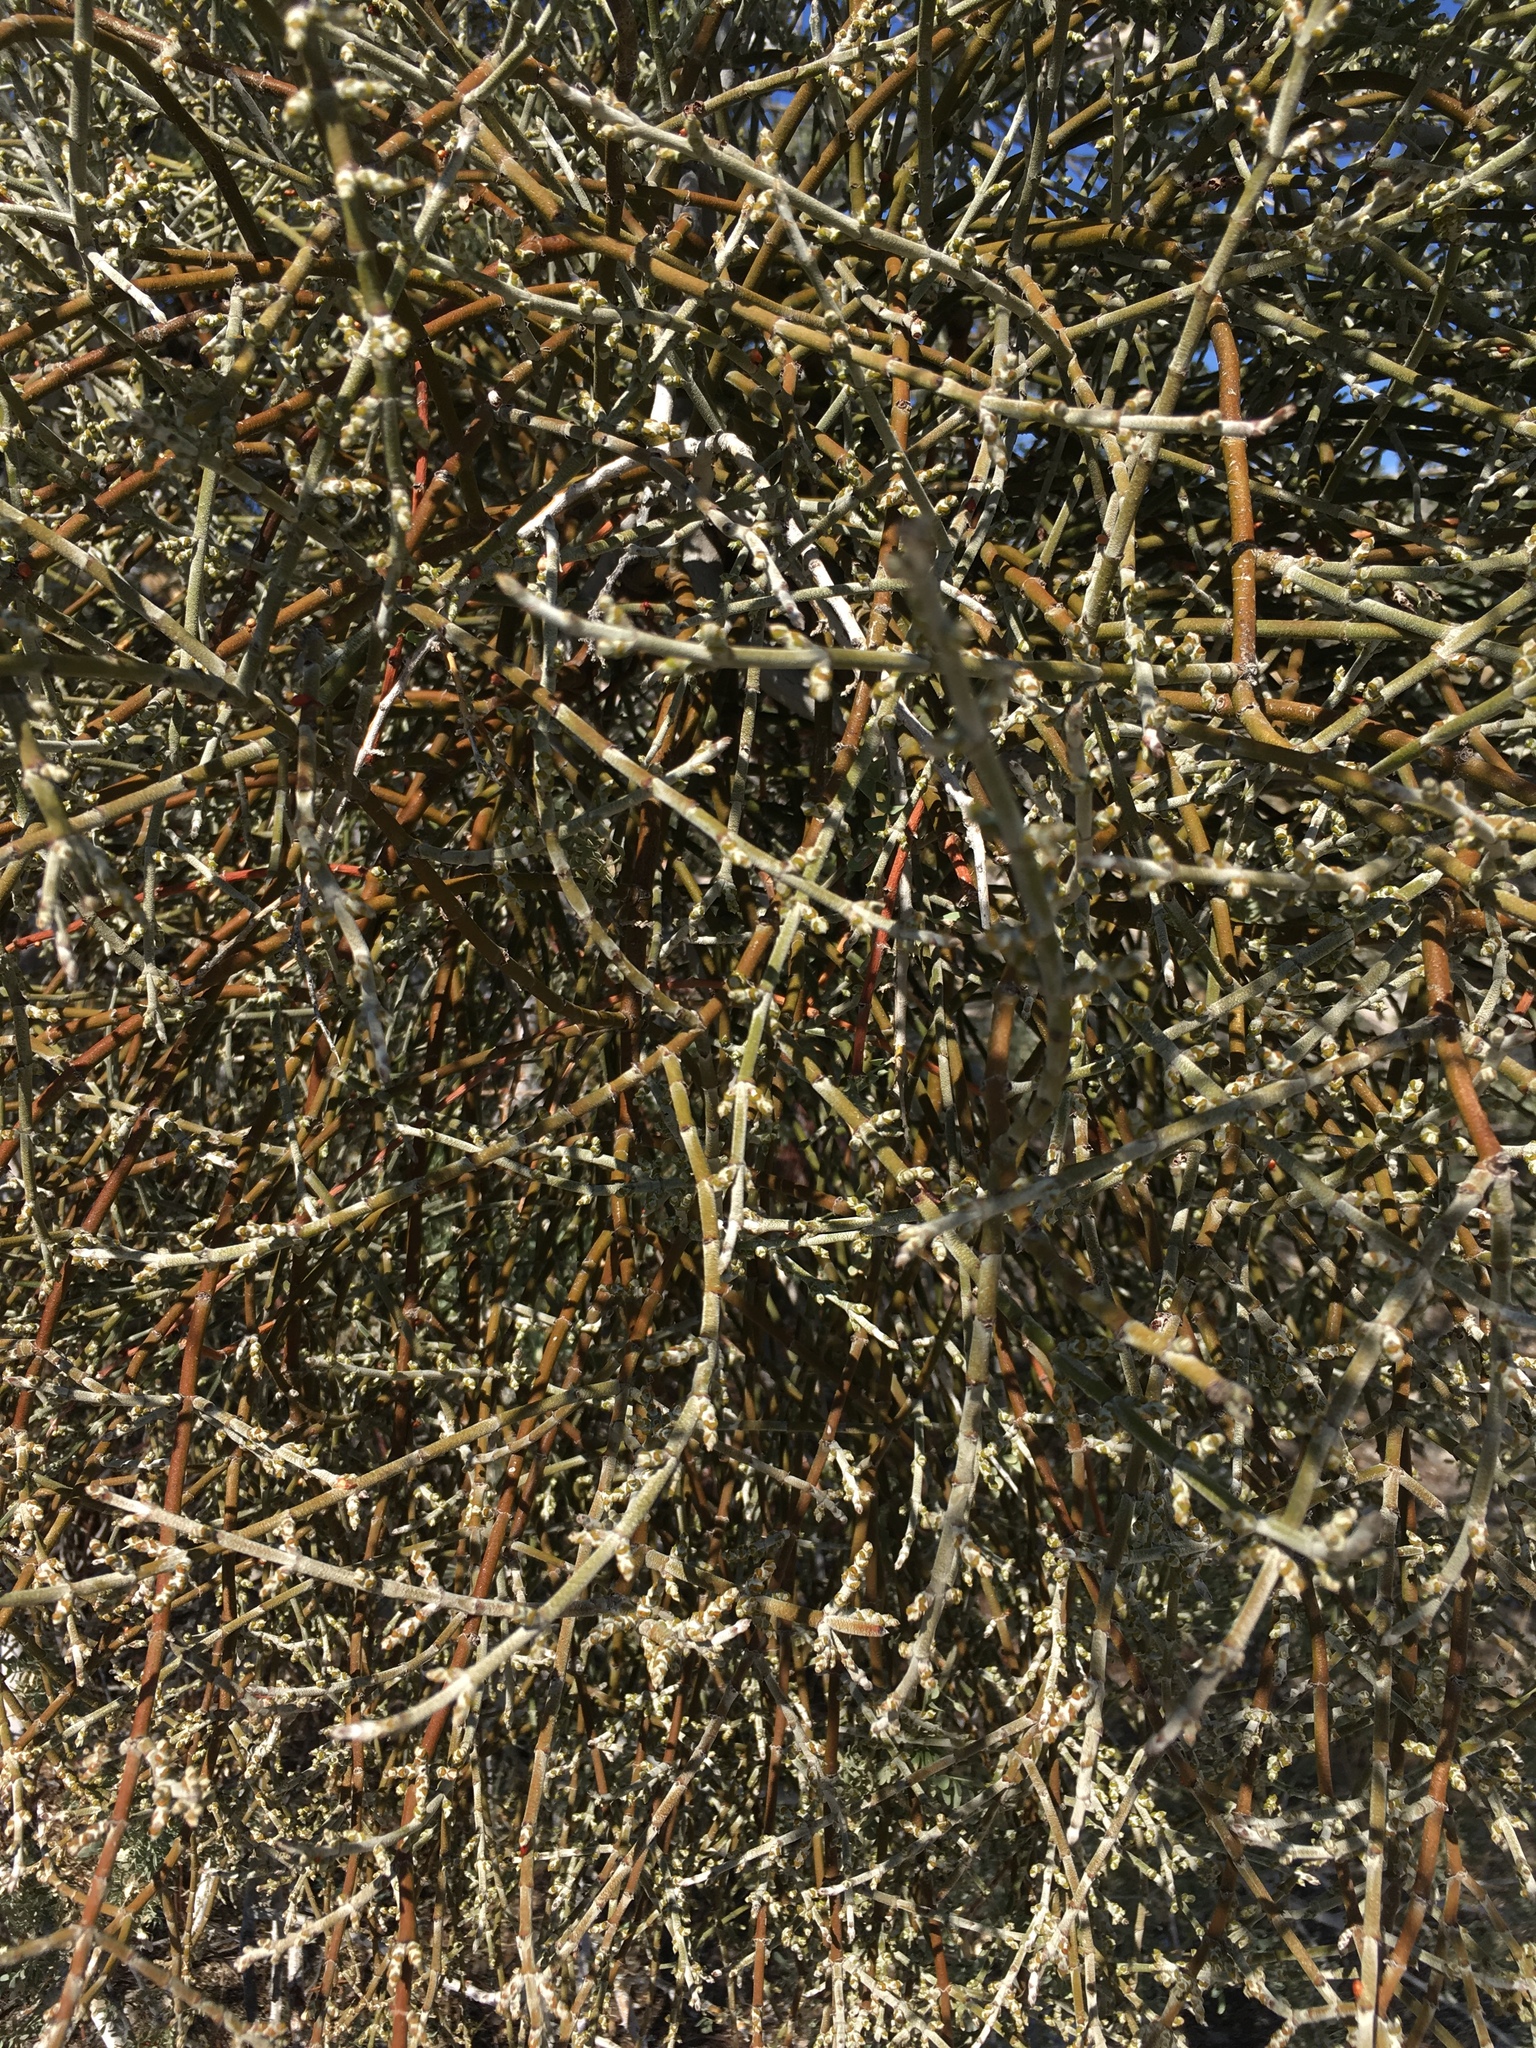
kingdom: Plantae
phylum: Tracheophyta
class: Magnoliopsida
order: Santalales
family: Viscaceae
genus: Phoradendron
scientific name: Phoradendron californicum
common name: Acacia mistletoe
